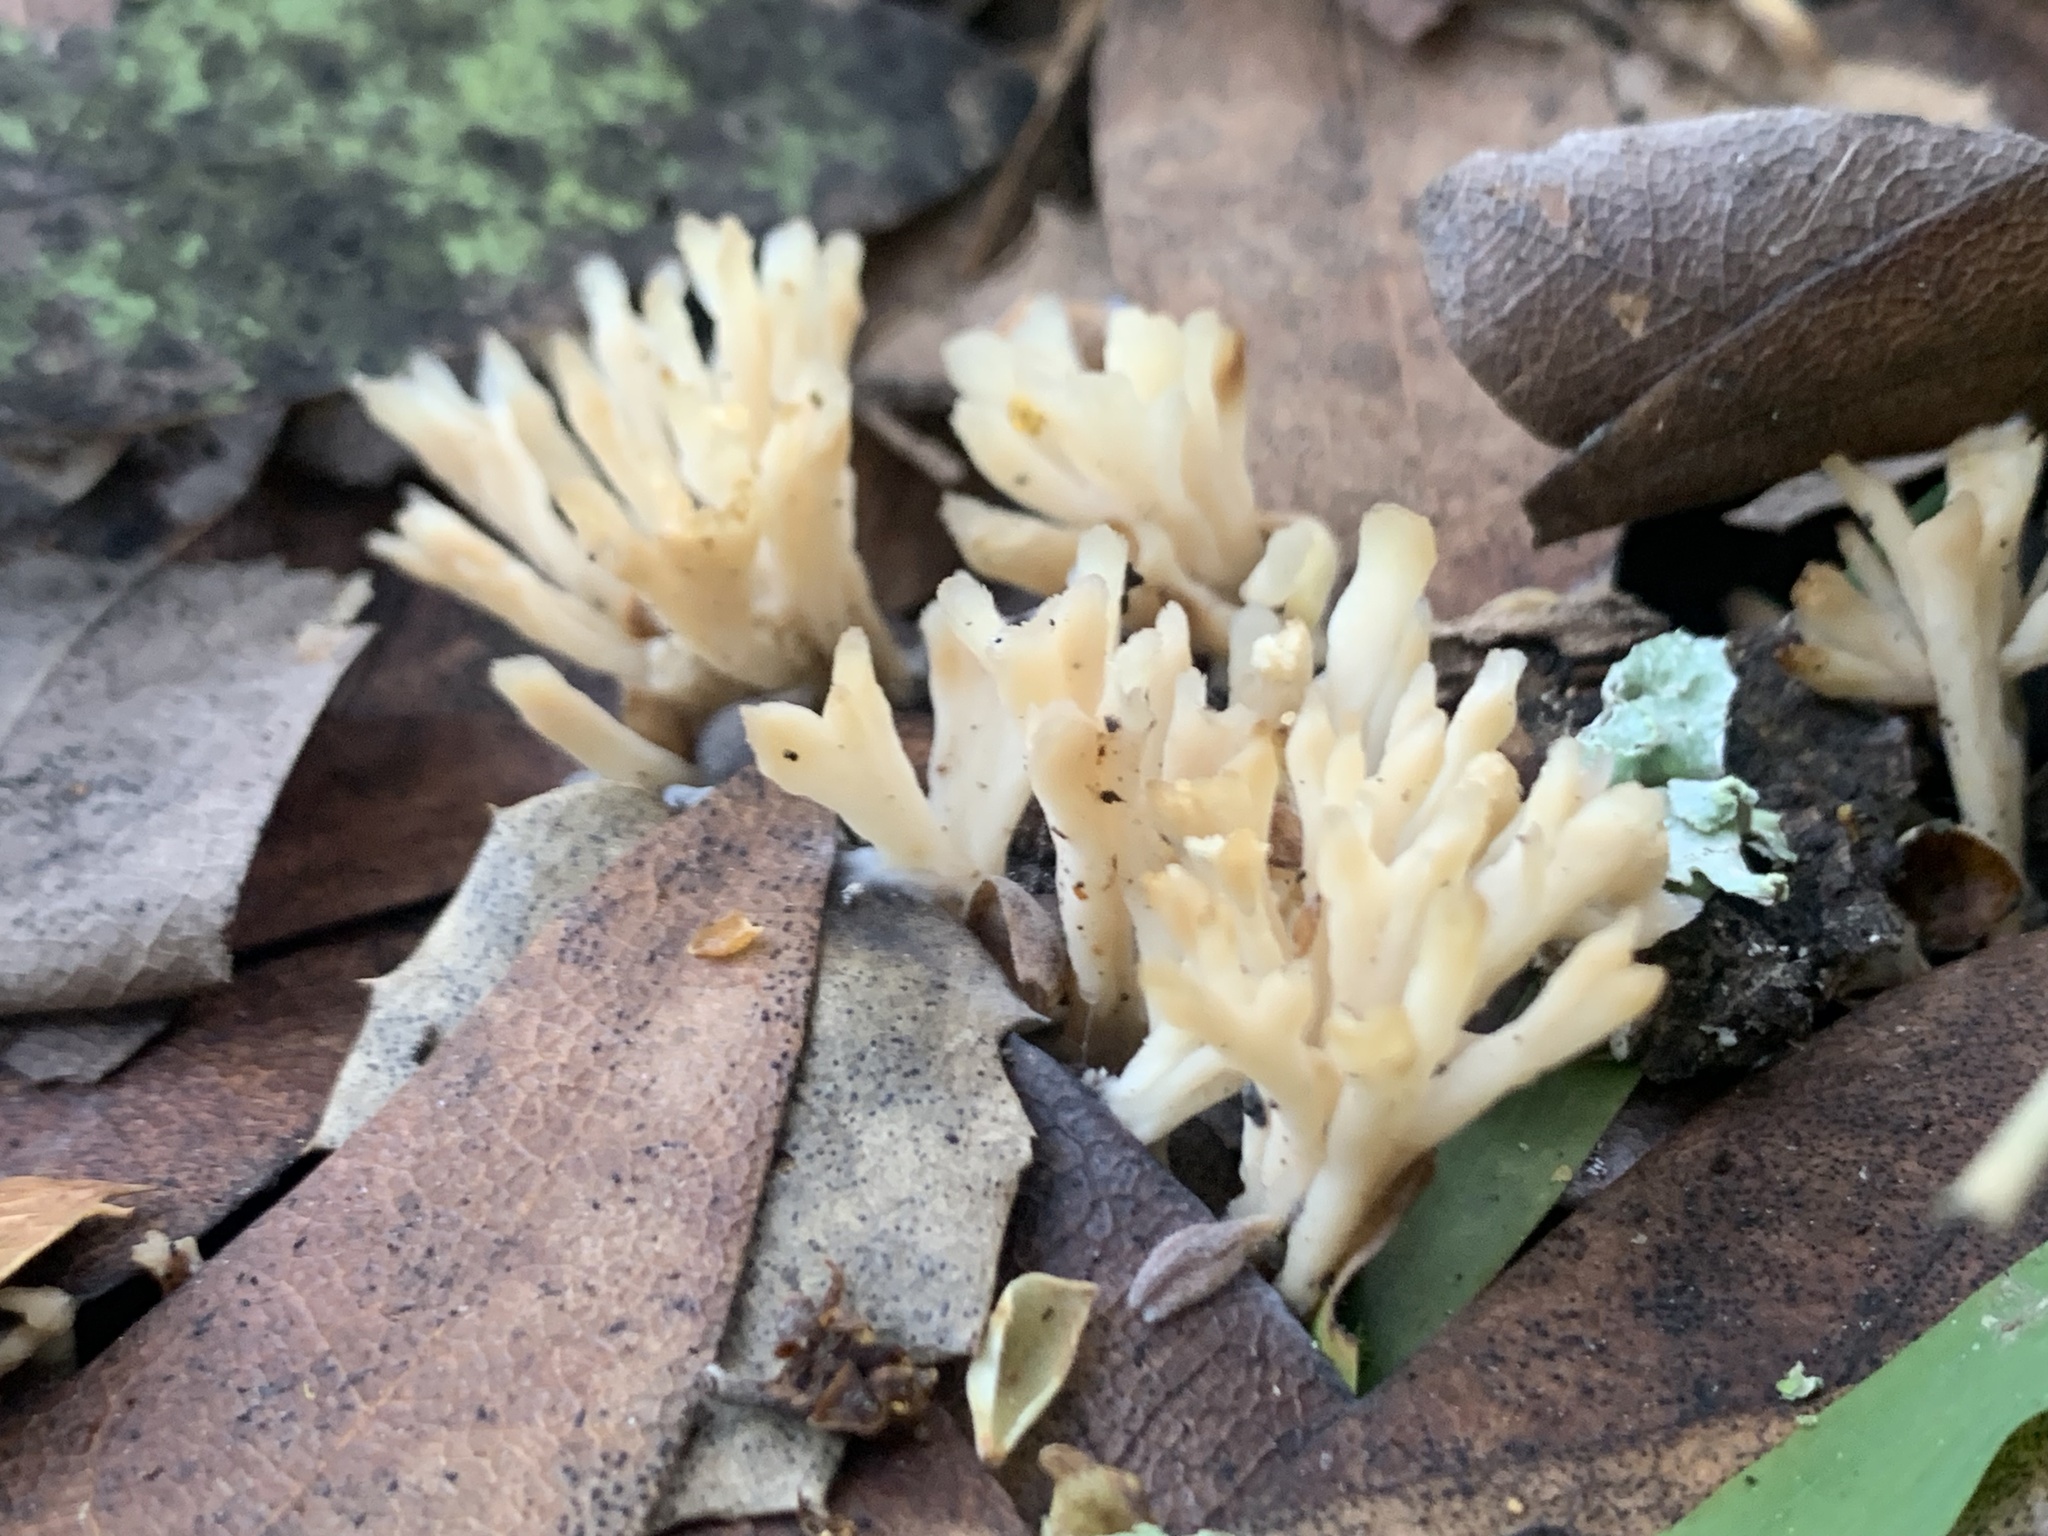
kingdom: Fungi
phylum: Basidiomycota
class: Agaricomycetes
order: Tremellodendropsidales
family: Tremellodendropsidaceae
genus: Tremellodendropsis
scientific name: Tremellodendropsis tuberosa
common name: Ashen coral
